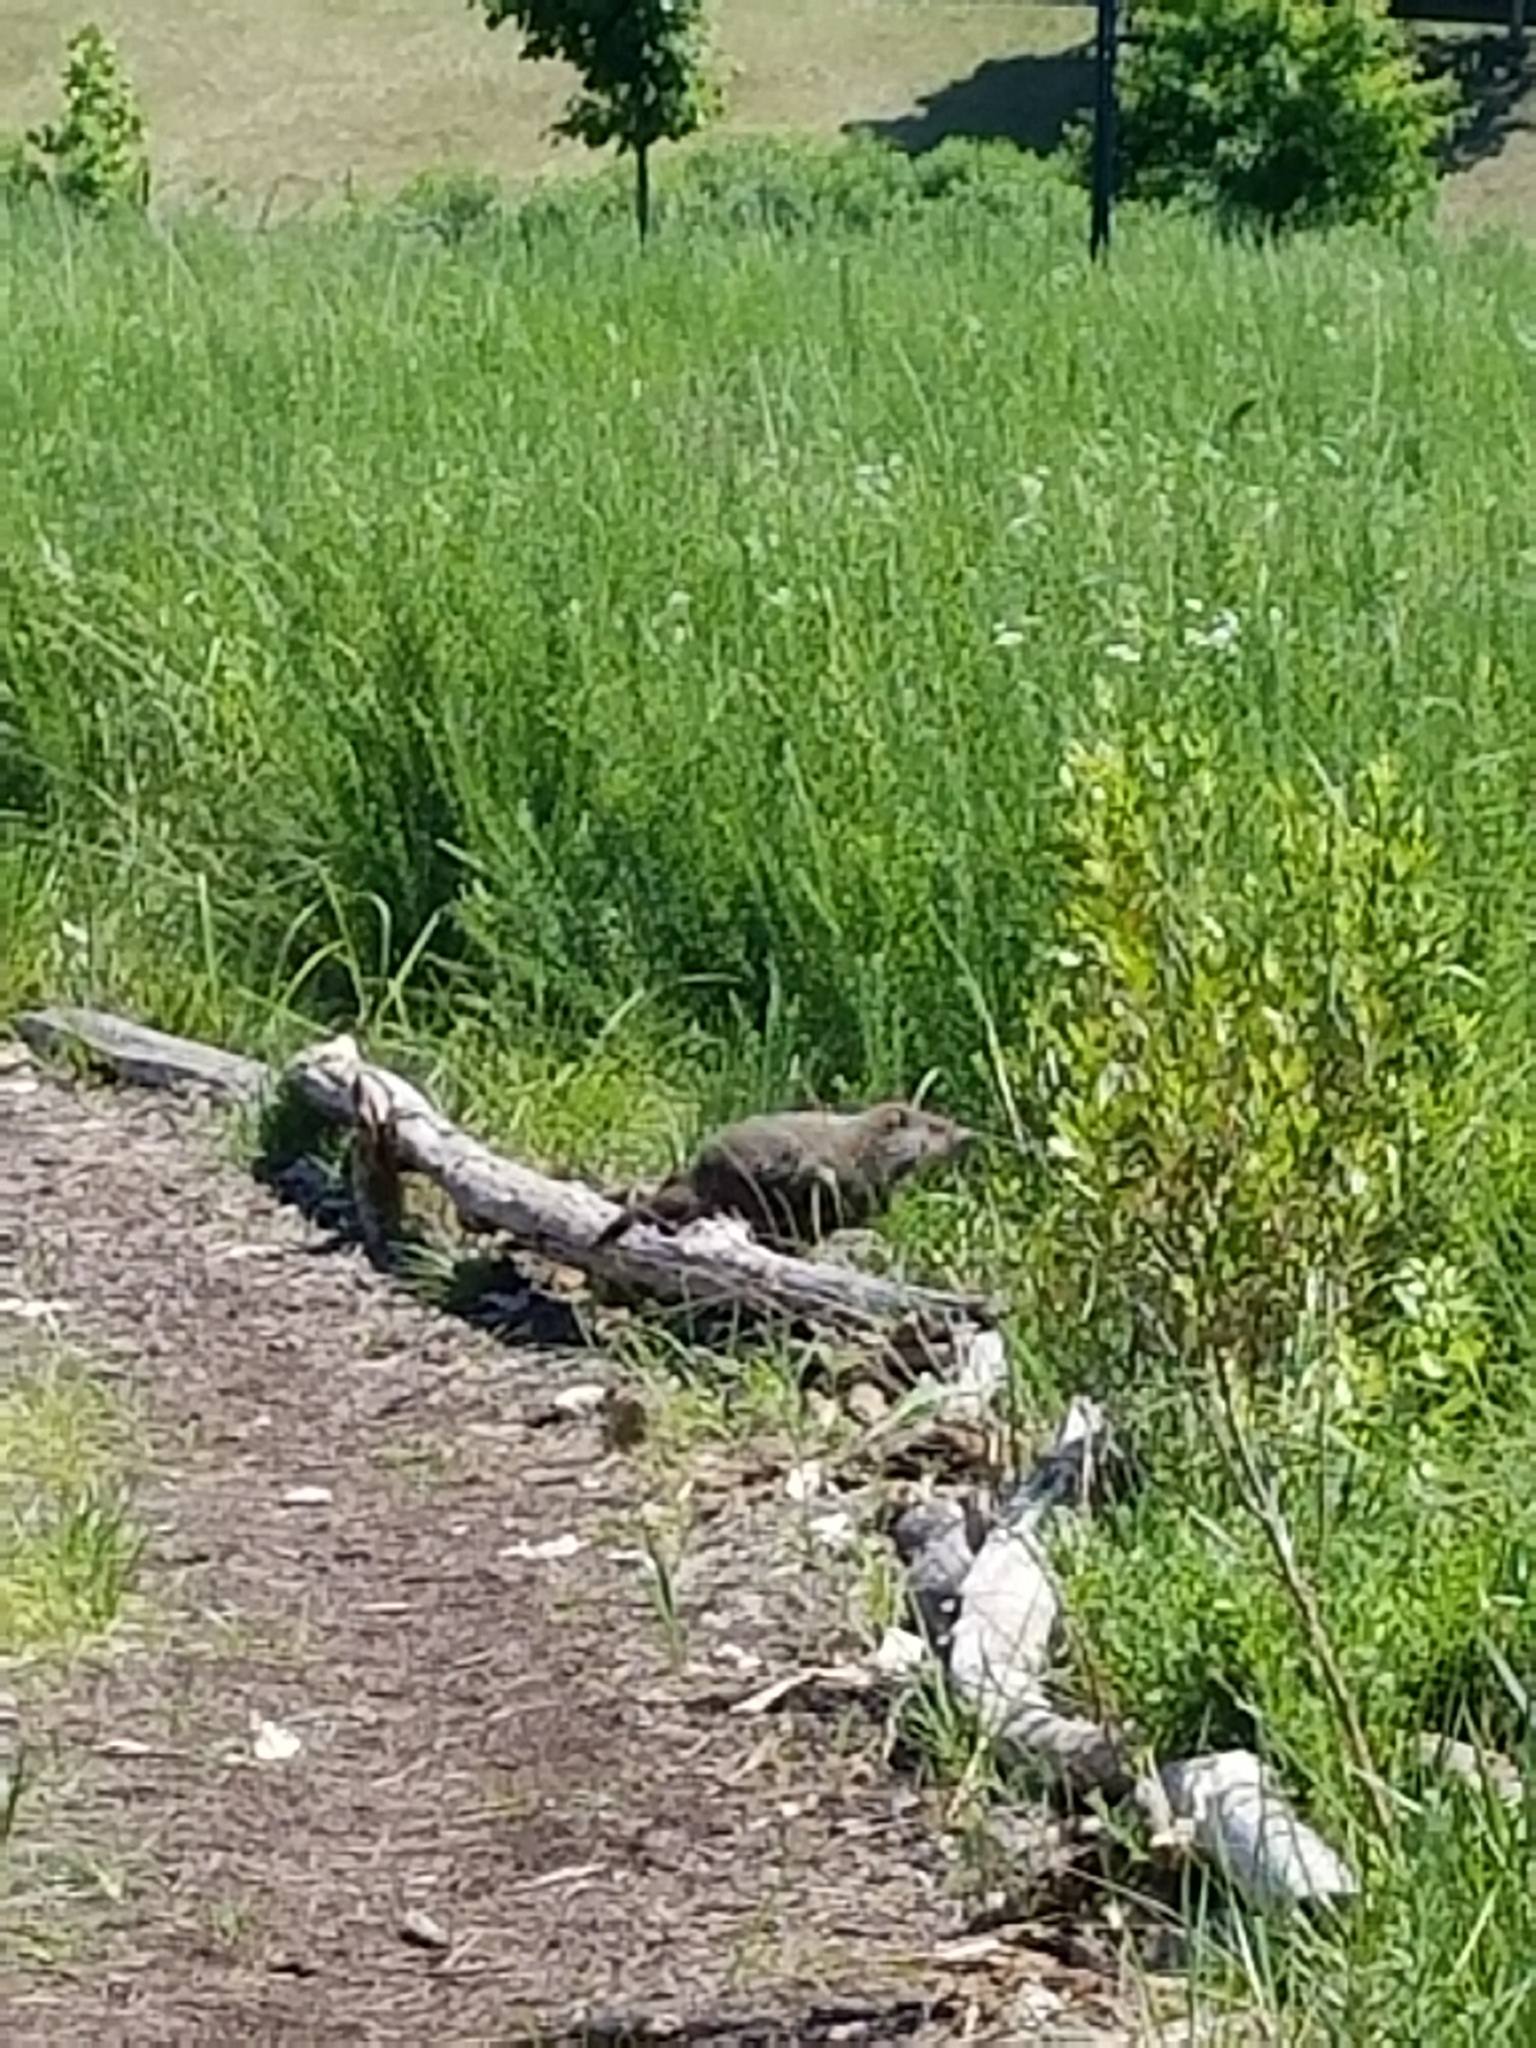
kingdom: Animalia
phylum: Chordata
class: Mammalia
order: Rodentia
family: Sciuridae
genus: Marmota
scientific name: Marmota monax
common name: Groundhog
